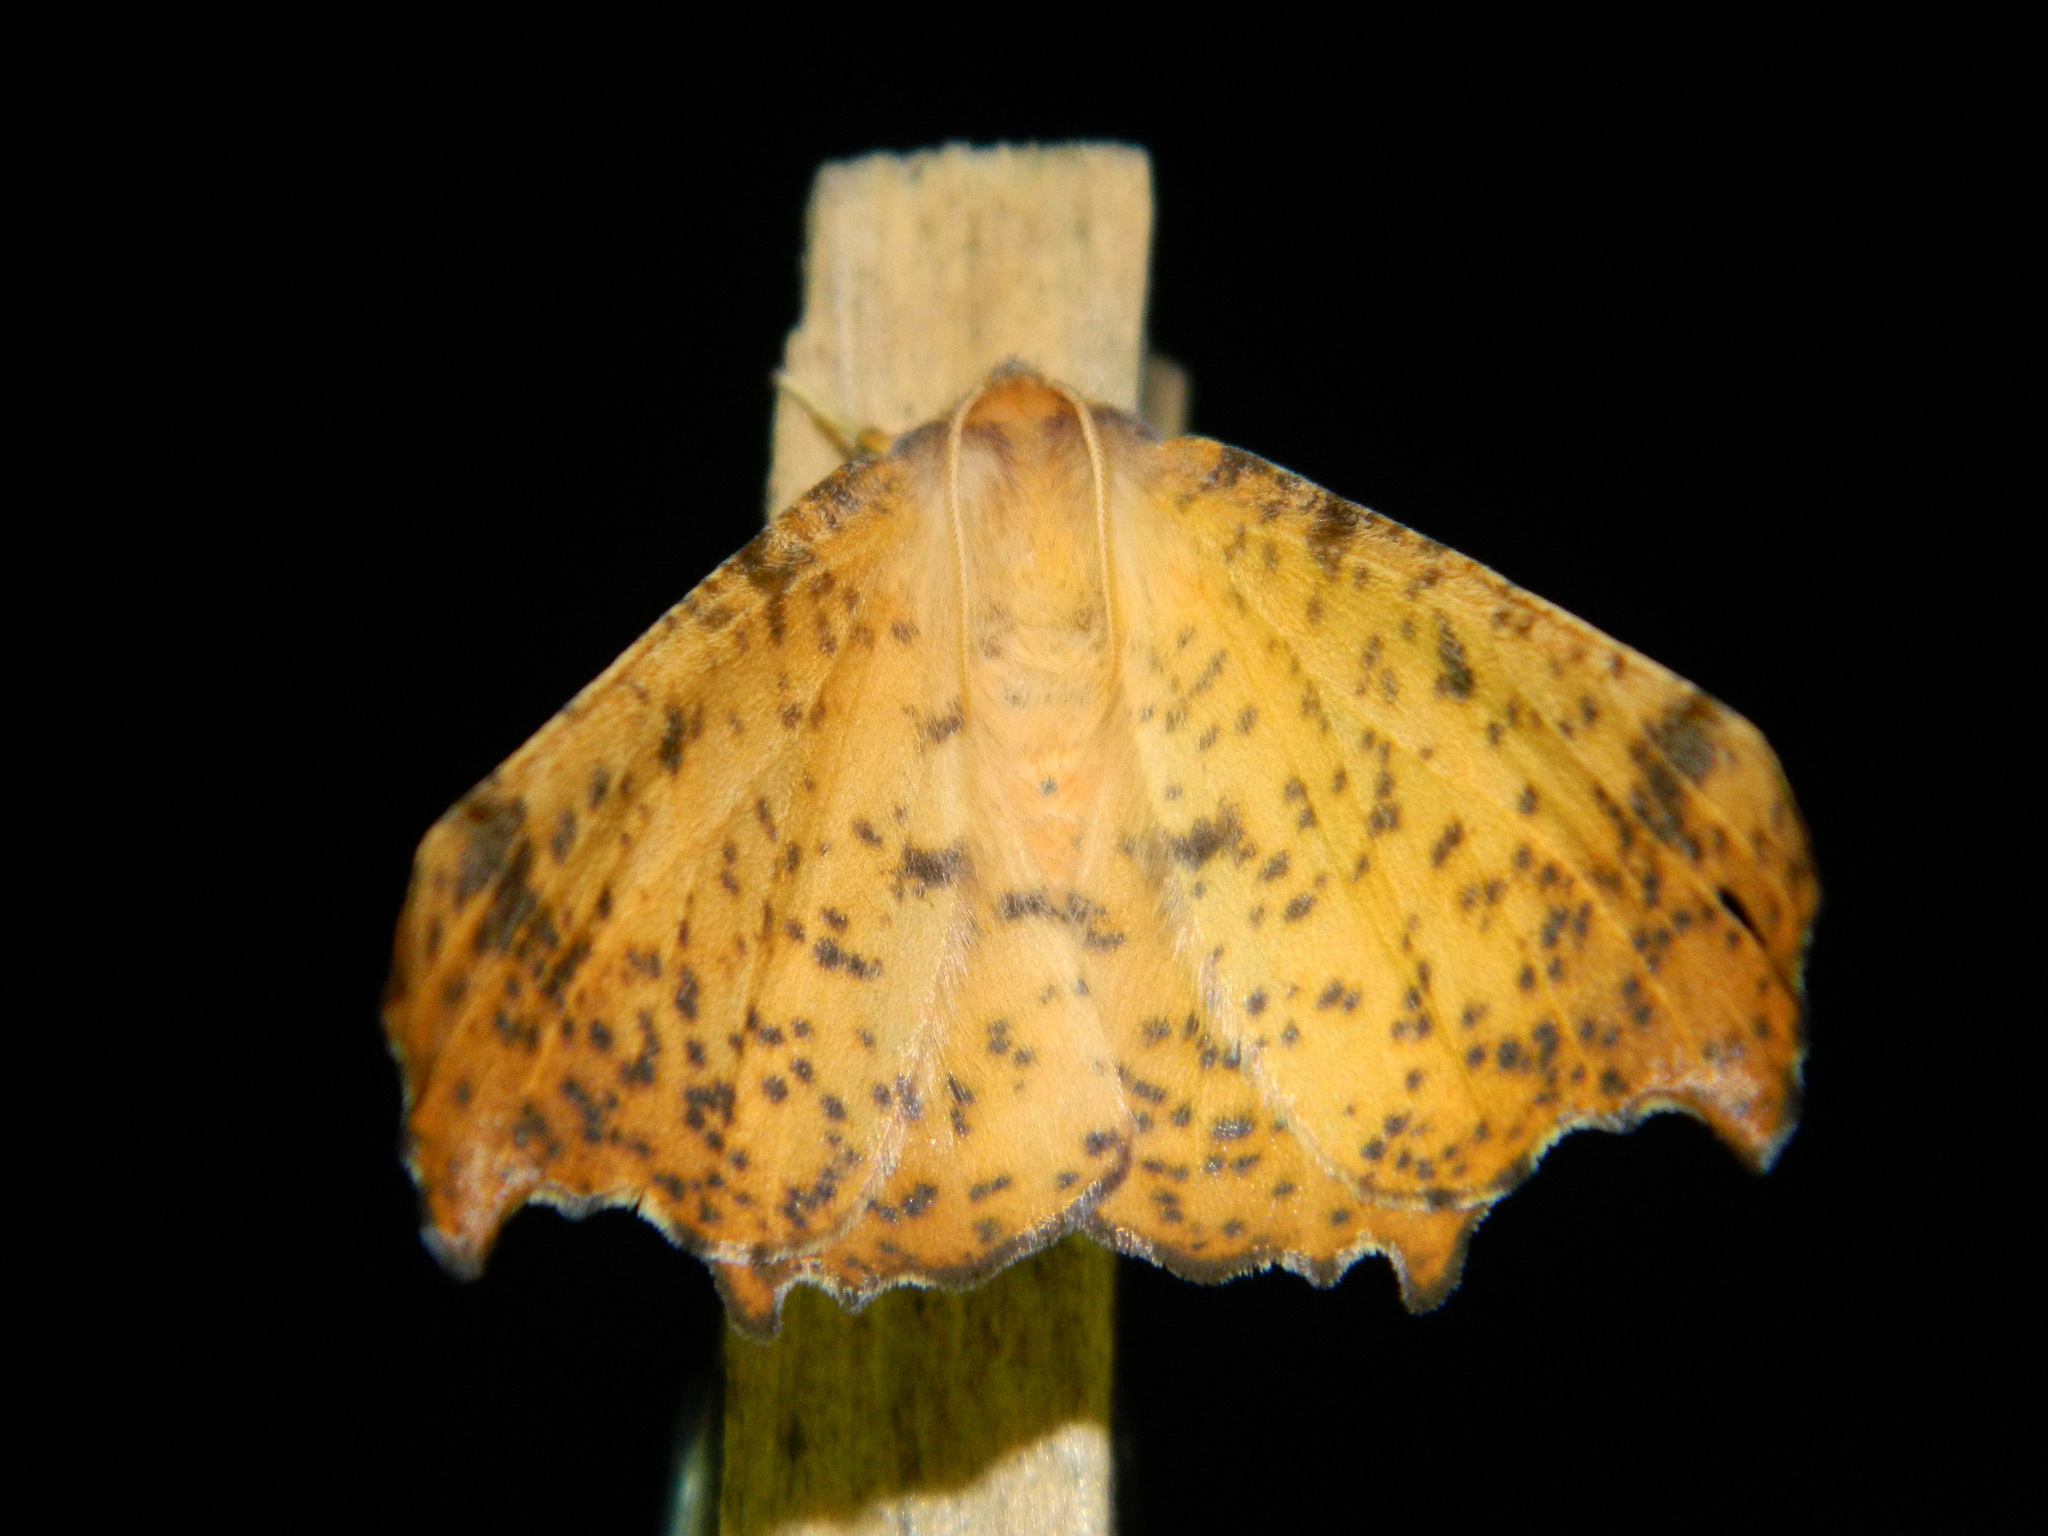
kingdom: Animalia
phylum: Arthropoda
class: Insecta
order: Lepidoptera
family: Geometridae
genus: Ennomos
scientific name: Ennomos magnaria
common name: Maple spanworm
